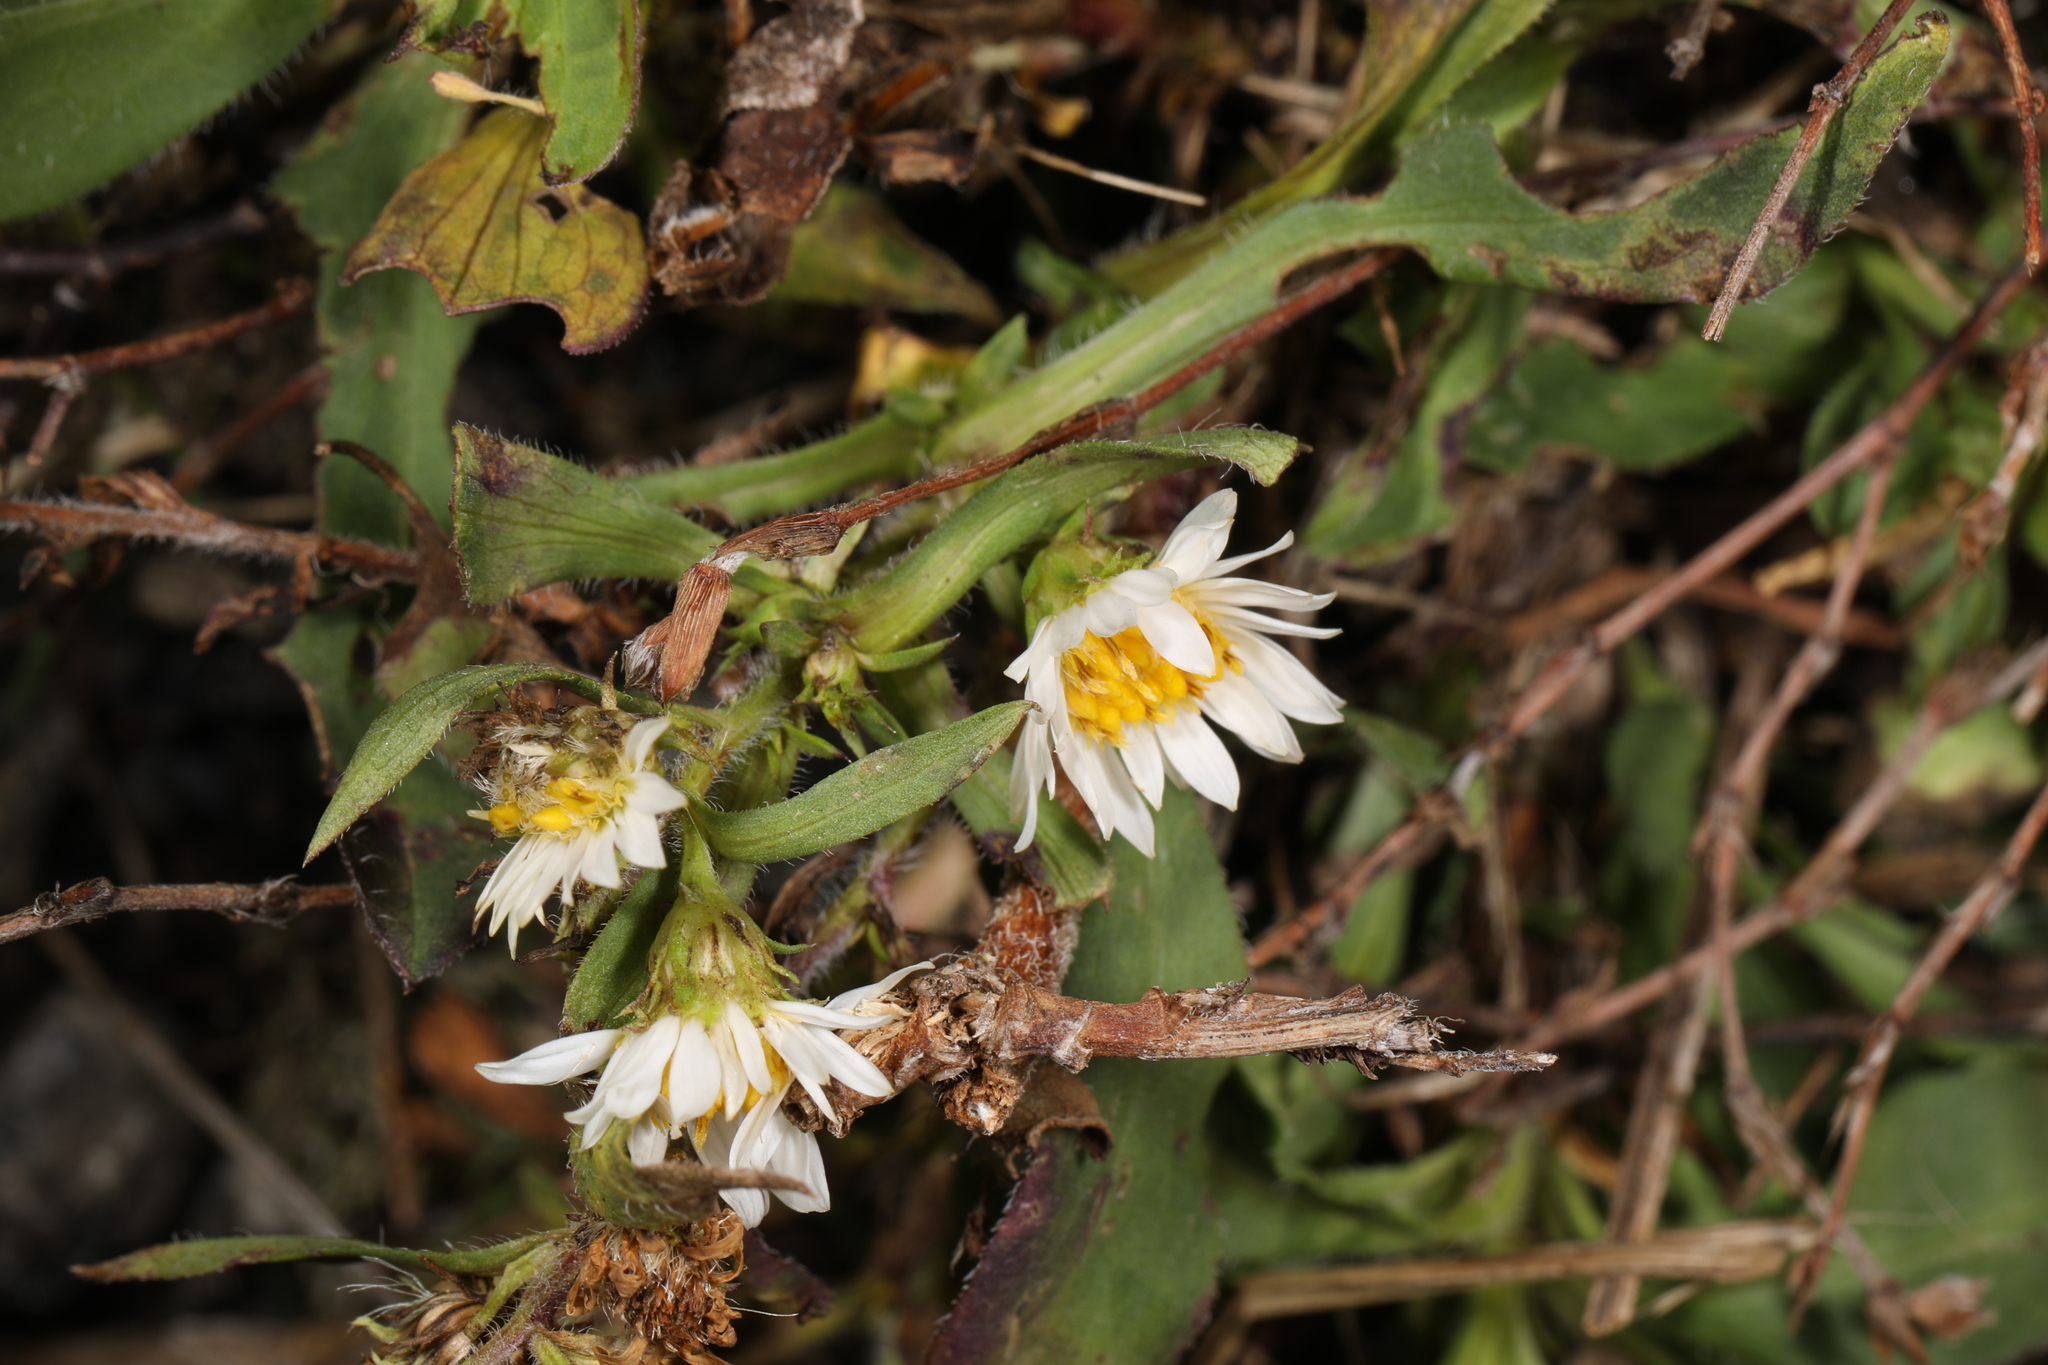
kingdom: Plantae
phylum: Tracheophyta
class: Magnoliopsida
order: Asterales
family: Asteraceae
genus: Symphyotrichum
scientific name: Symphyotrichum pilosum
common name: Awl aster
